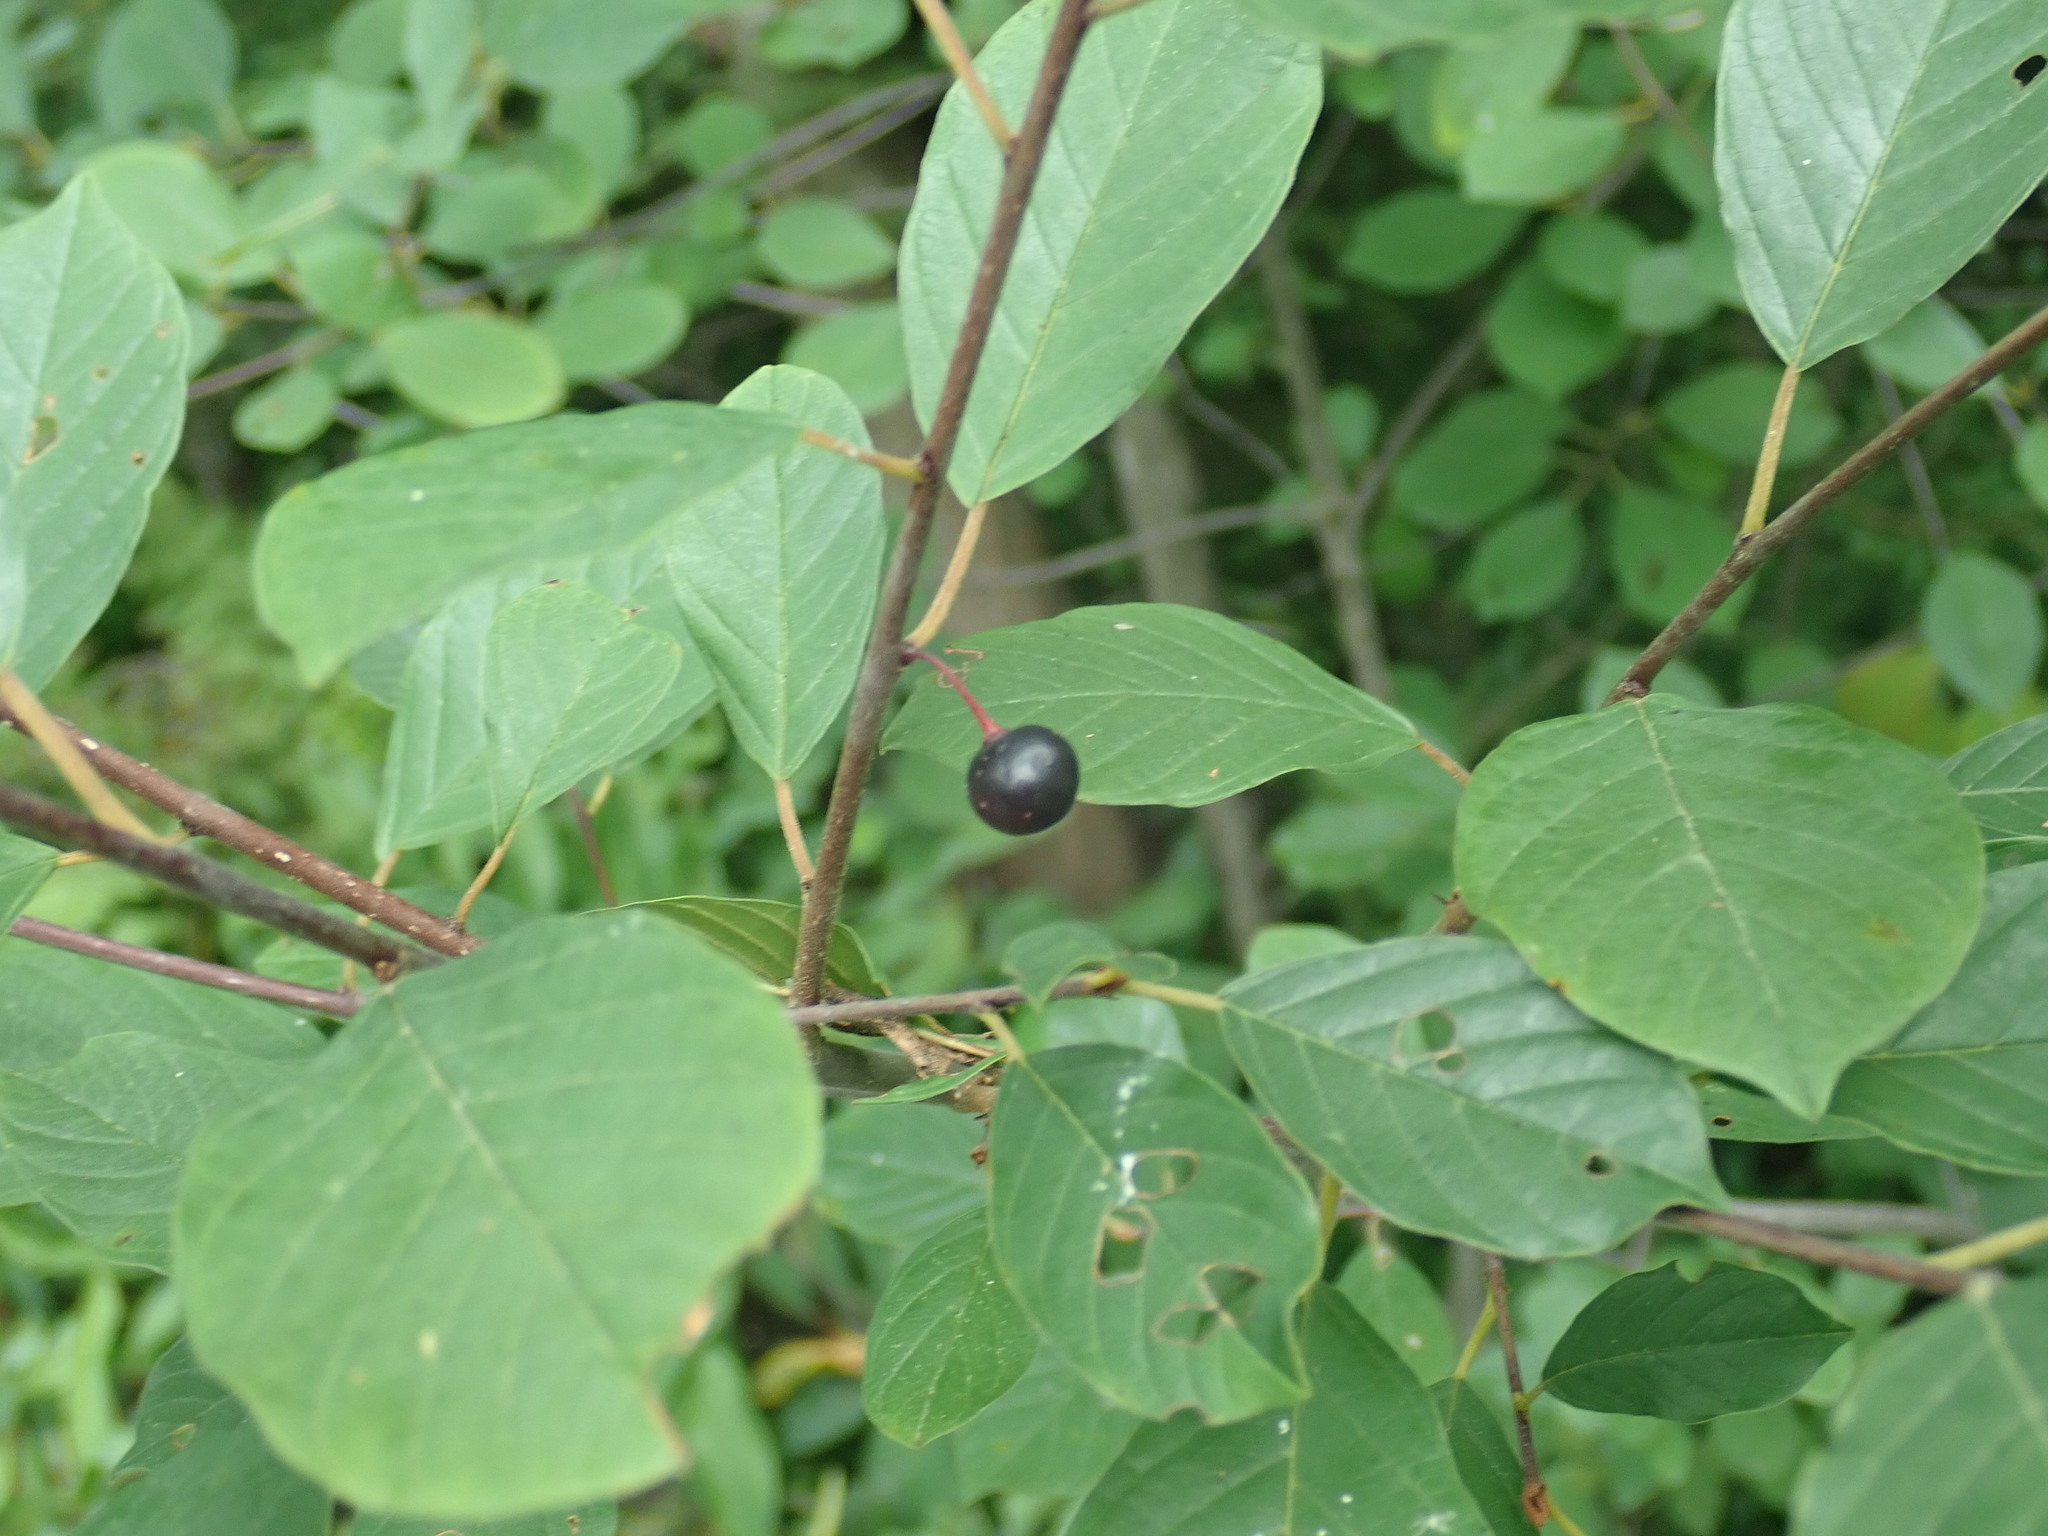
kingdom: Plantae
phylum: Tracheophyta
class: Magnoliopsida
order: Rosales
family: Rhamnaceae
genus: Frangula
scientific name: Frangula alnus
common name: Alder buckthorn
